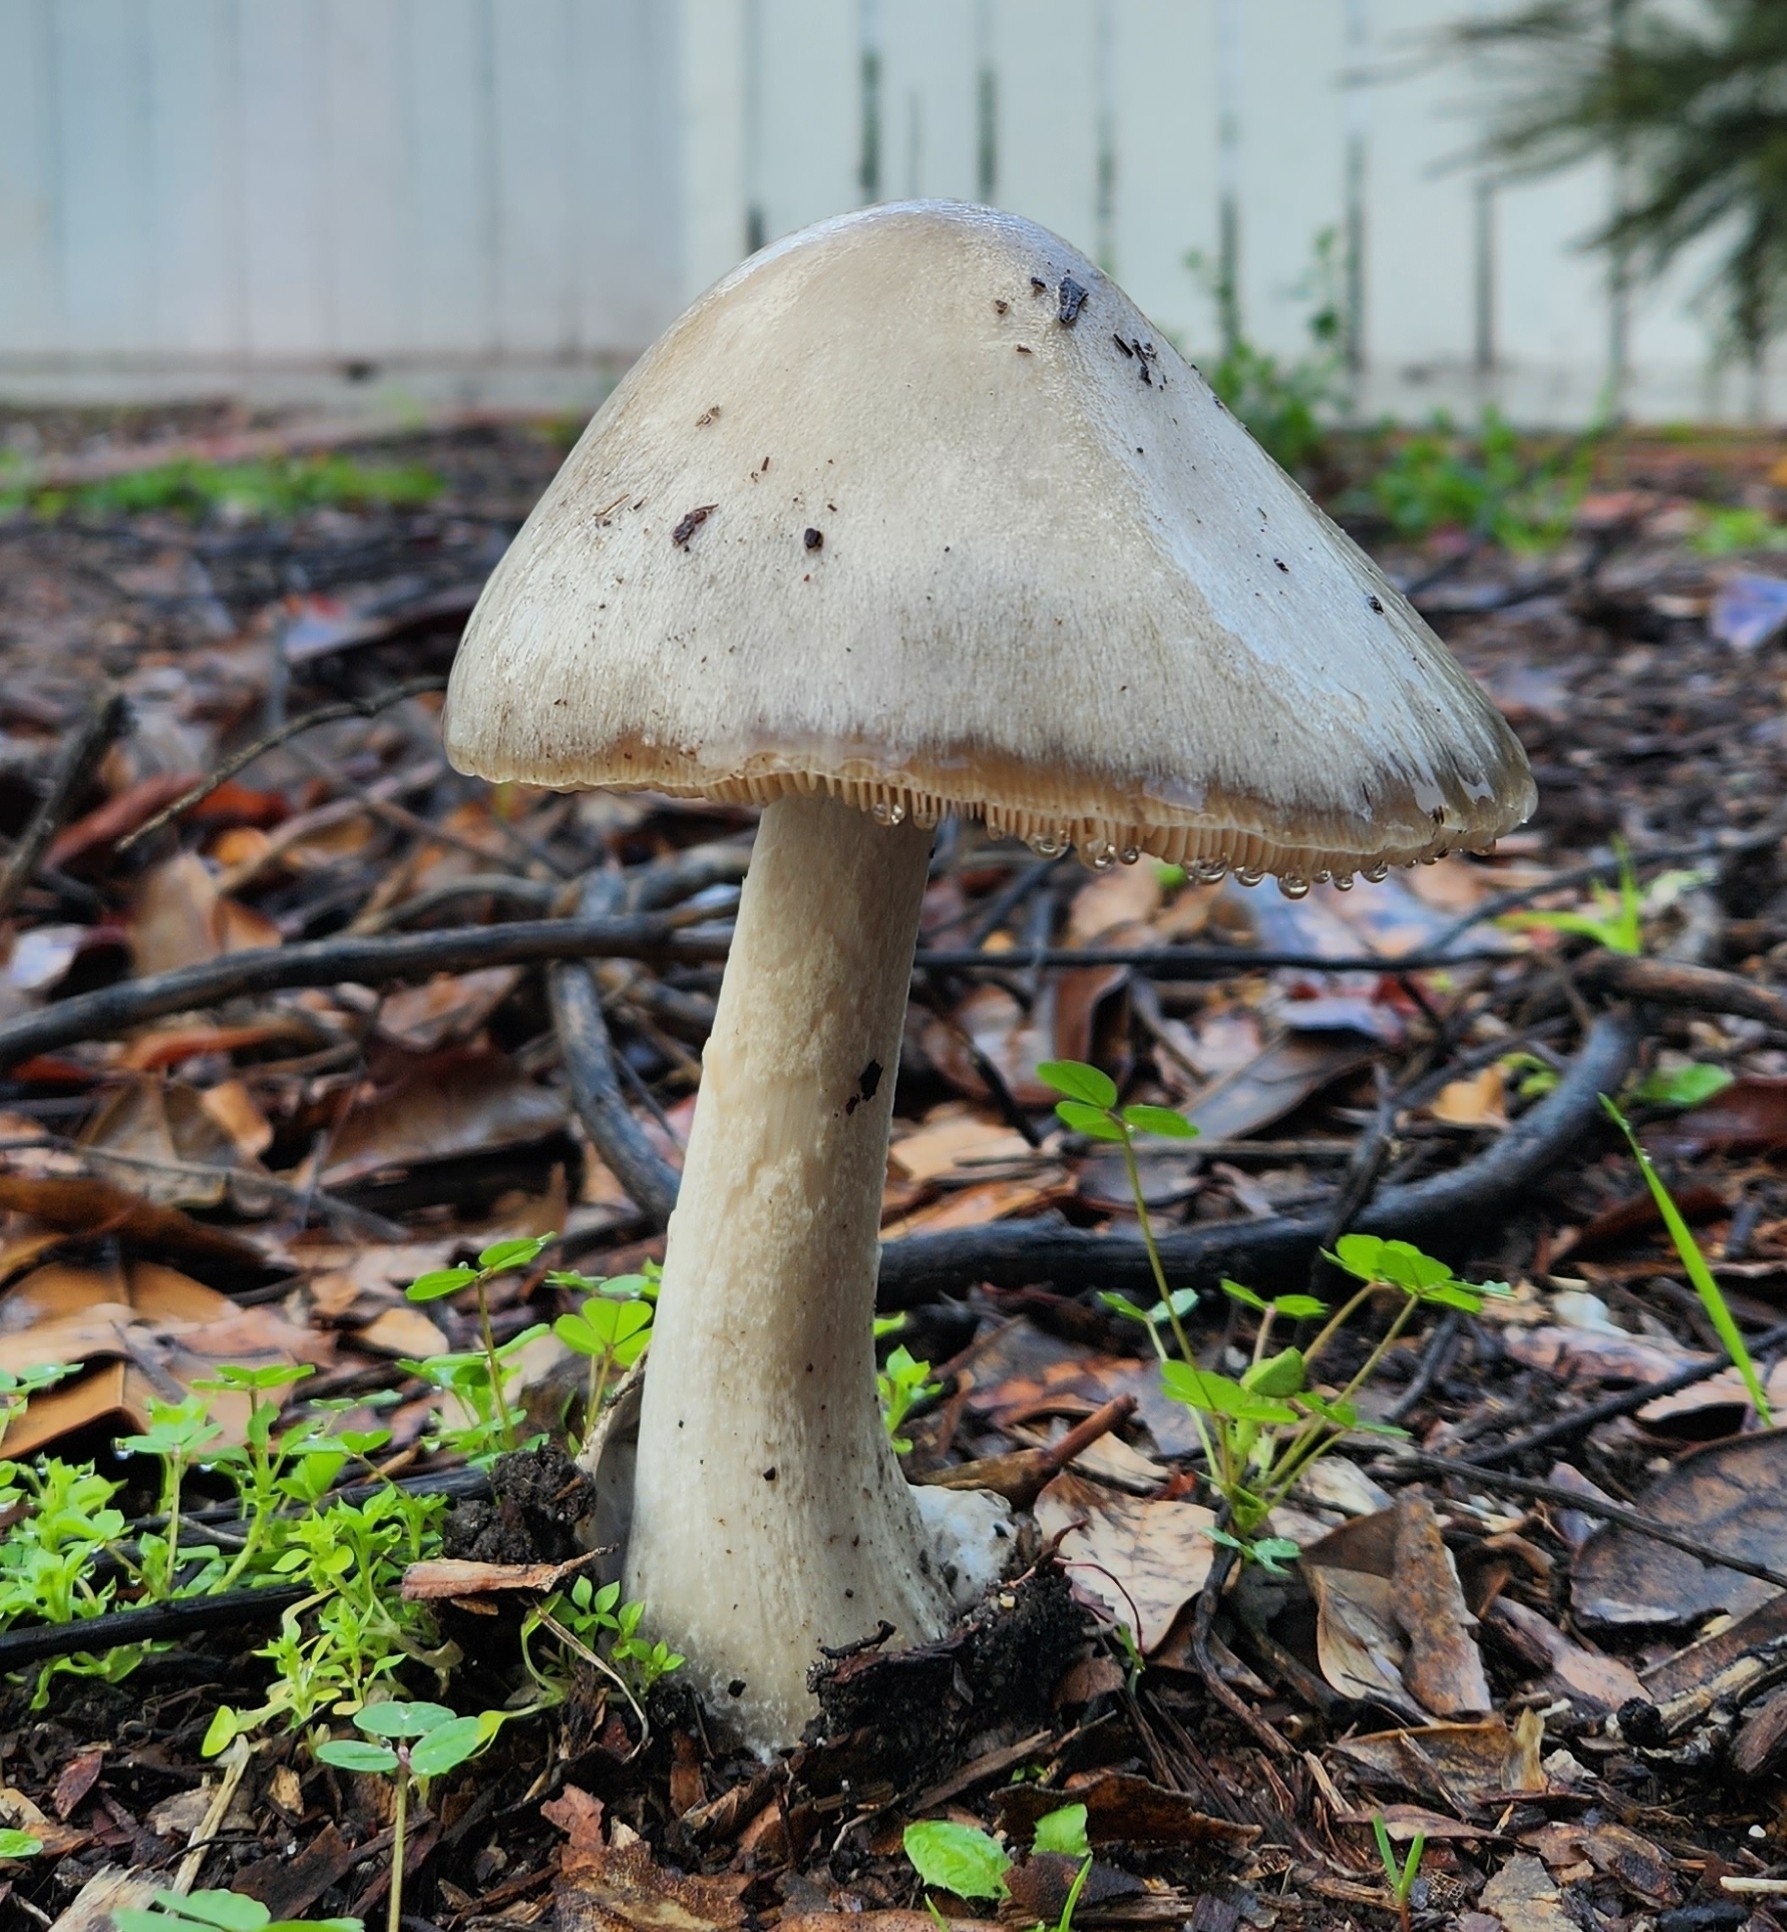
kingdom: Fungi
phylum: Basidiomycota
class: Agaricomycetes
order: Agaricales
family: Pluteaceae
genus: Volvopluteus
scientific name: Volvopluteus gloiocephalus
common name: Stubble rosegill
